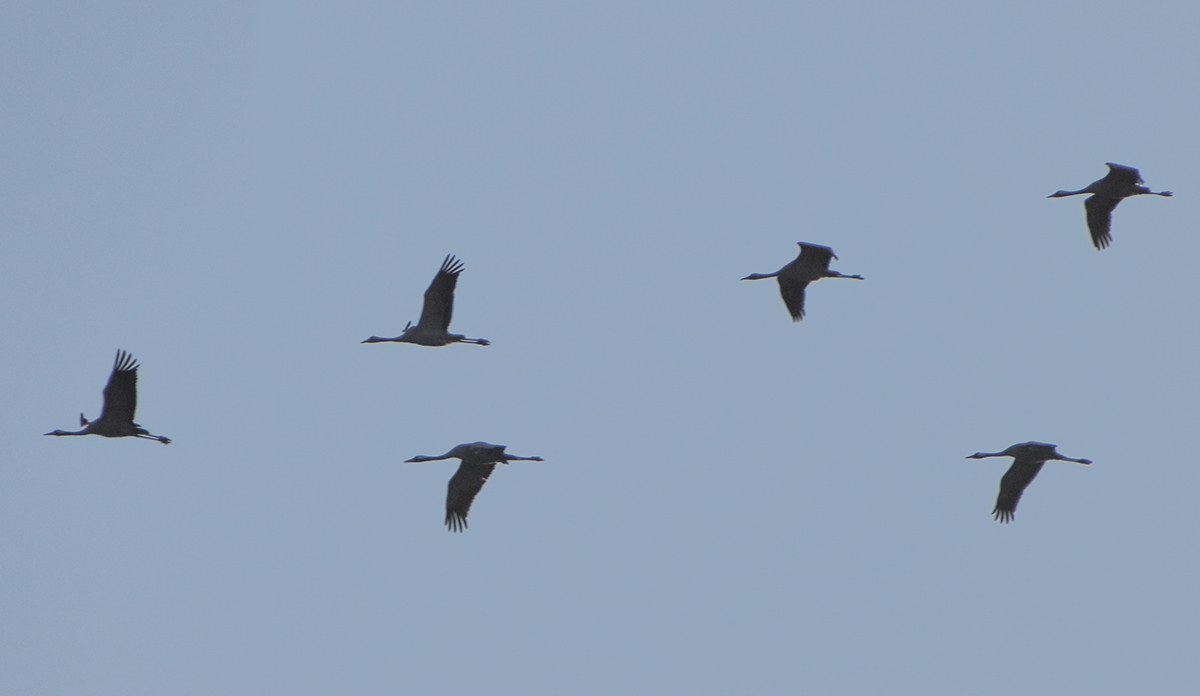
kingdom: Animalia
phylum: Chordata
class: Aves
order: Gruiformes
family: Gruidae
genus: Grus
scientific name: Grus grus
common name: Common crane
